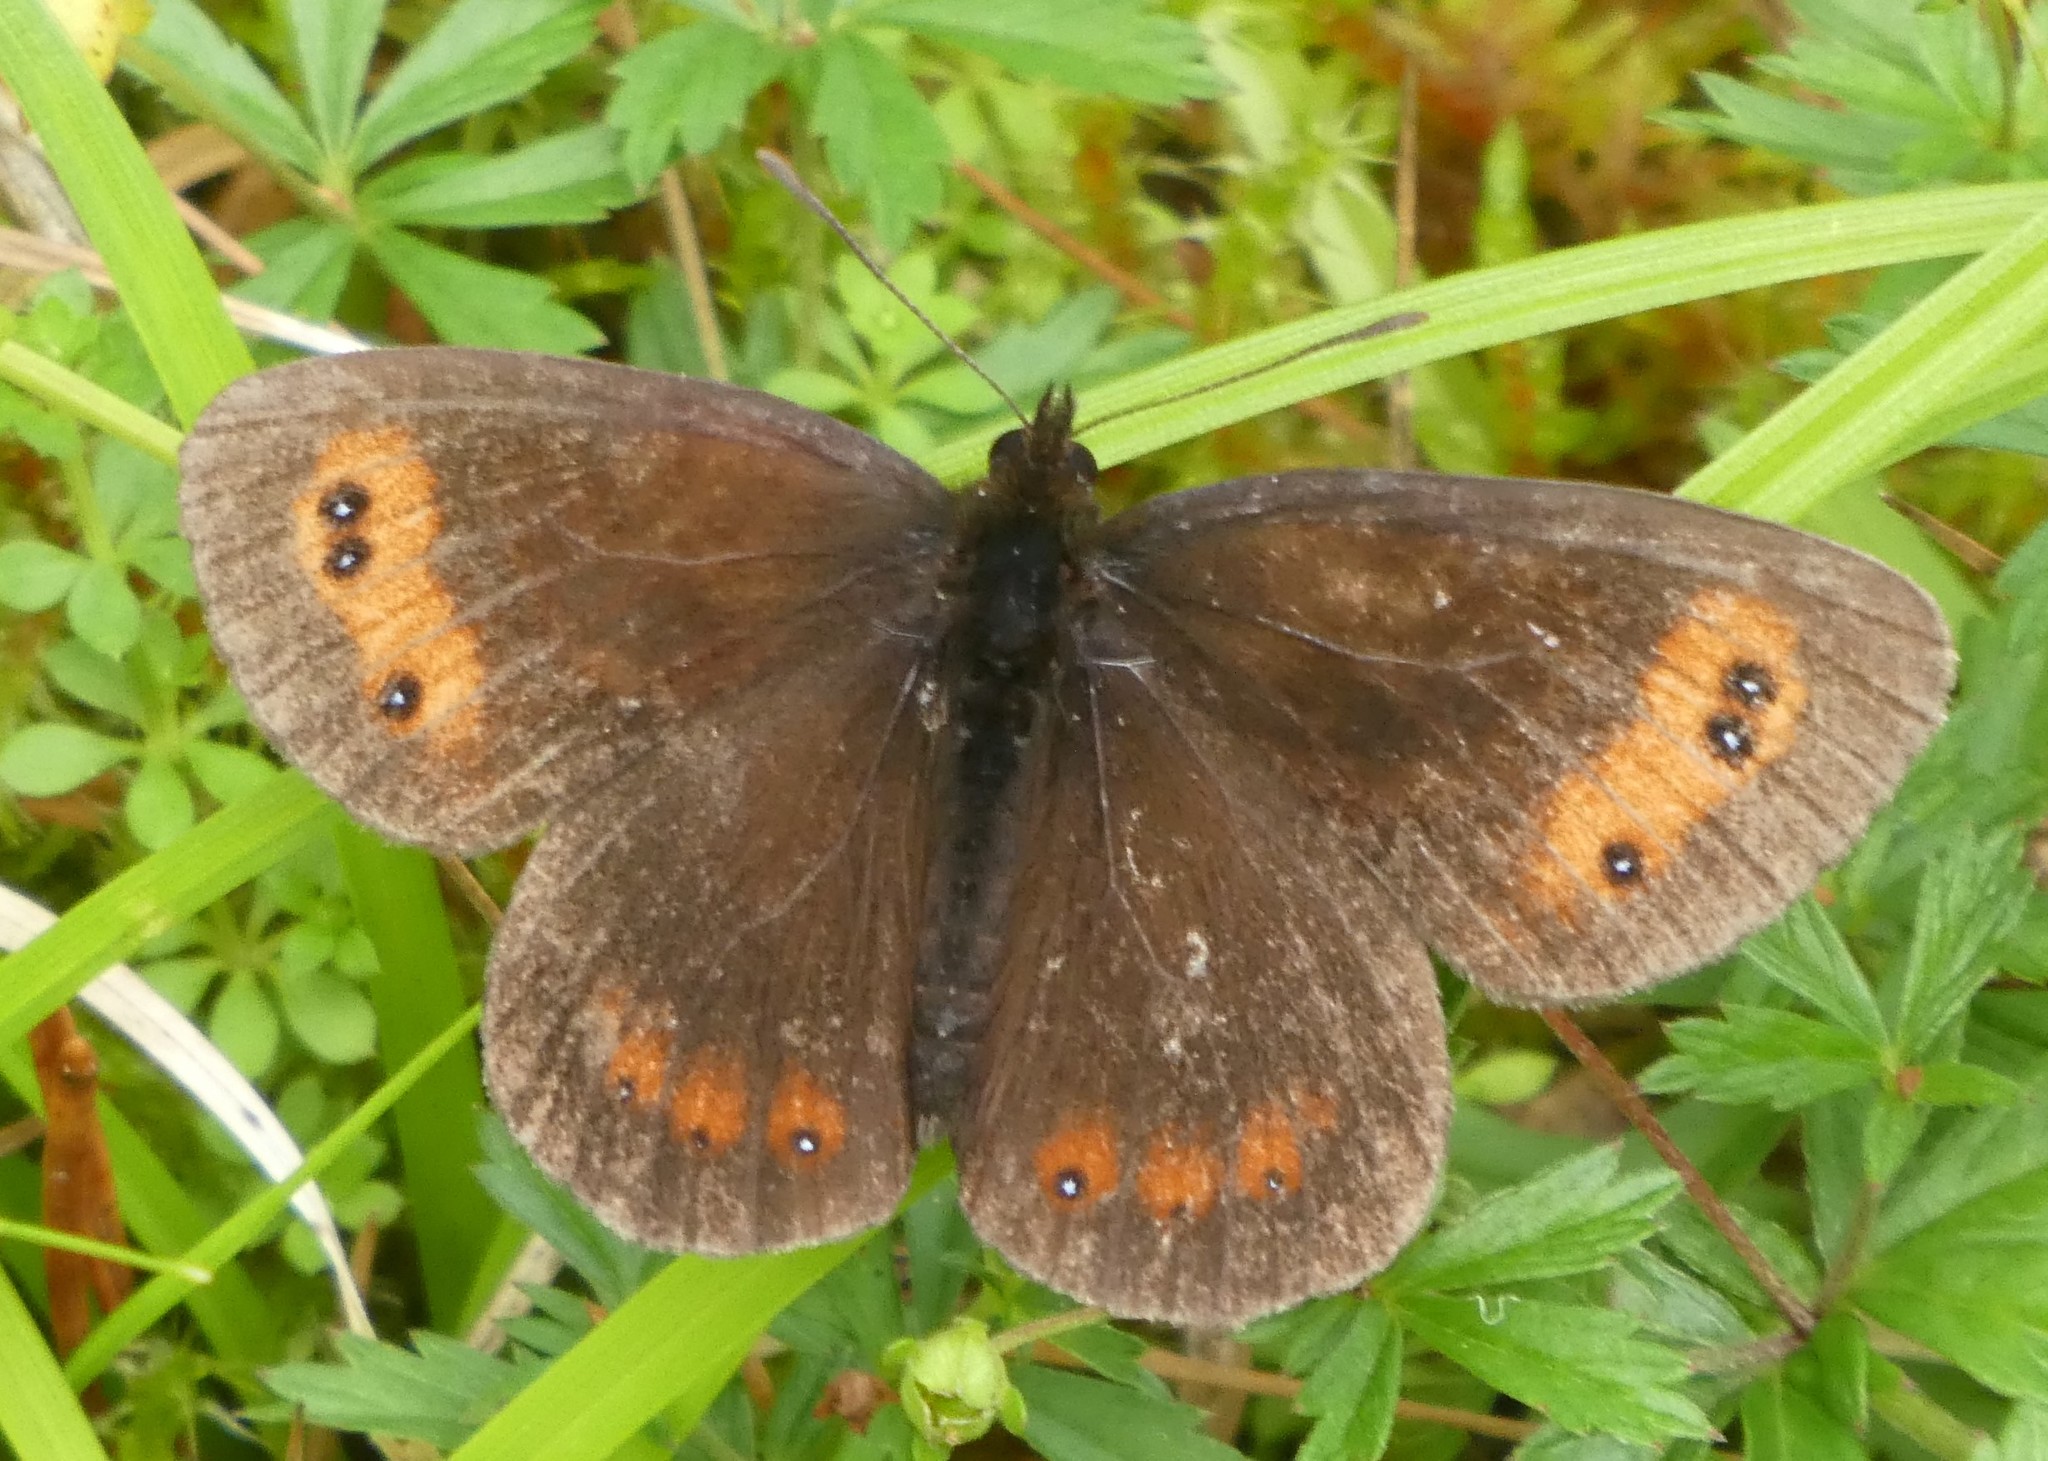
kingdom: Animalia
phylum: Arthropoda
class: Insecta
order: Lepidoptera
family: Nymphalidae
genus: Erebia
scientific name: Erebia aethiops
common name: Scotch argus
